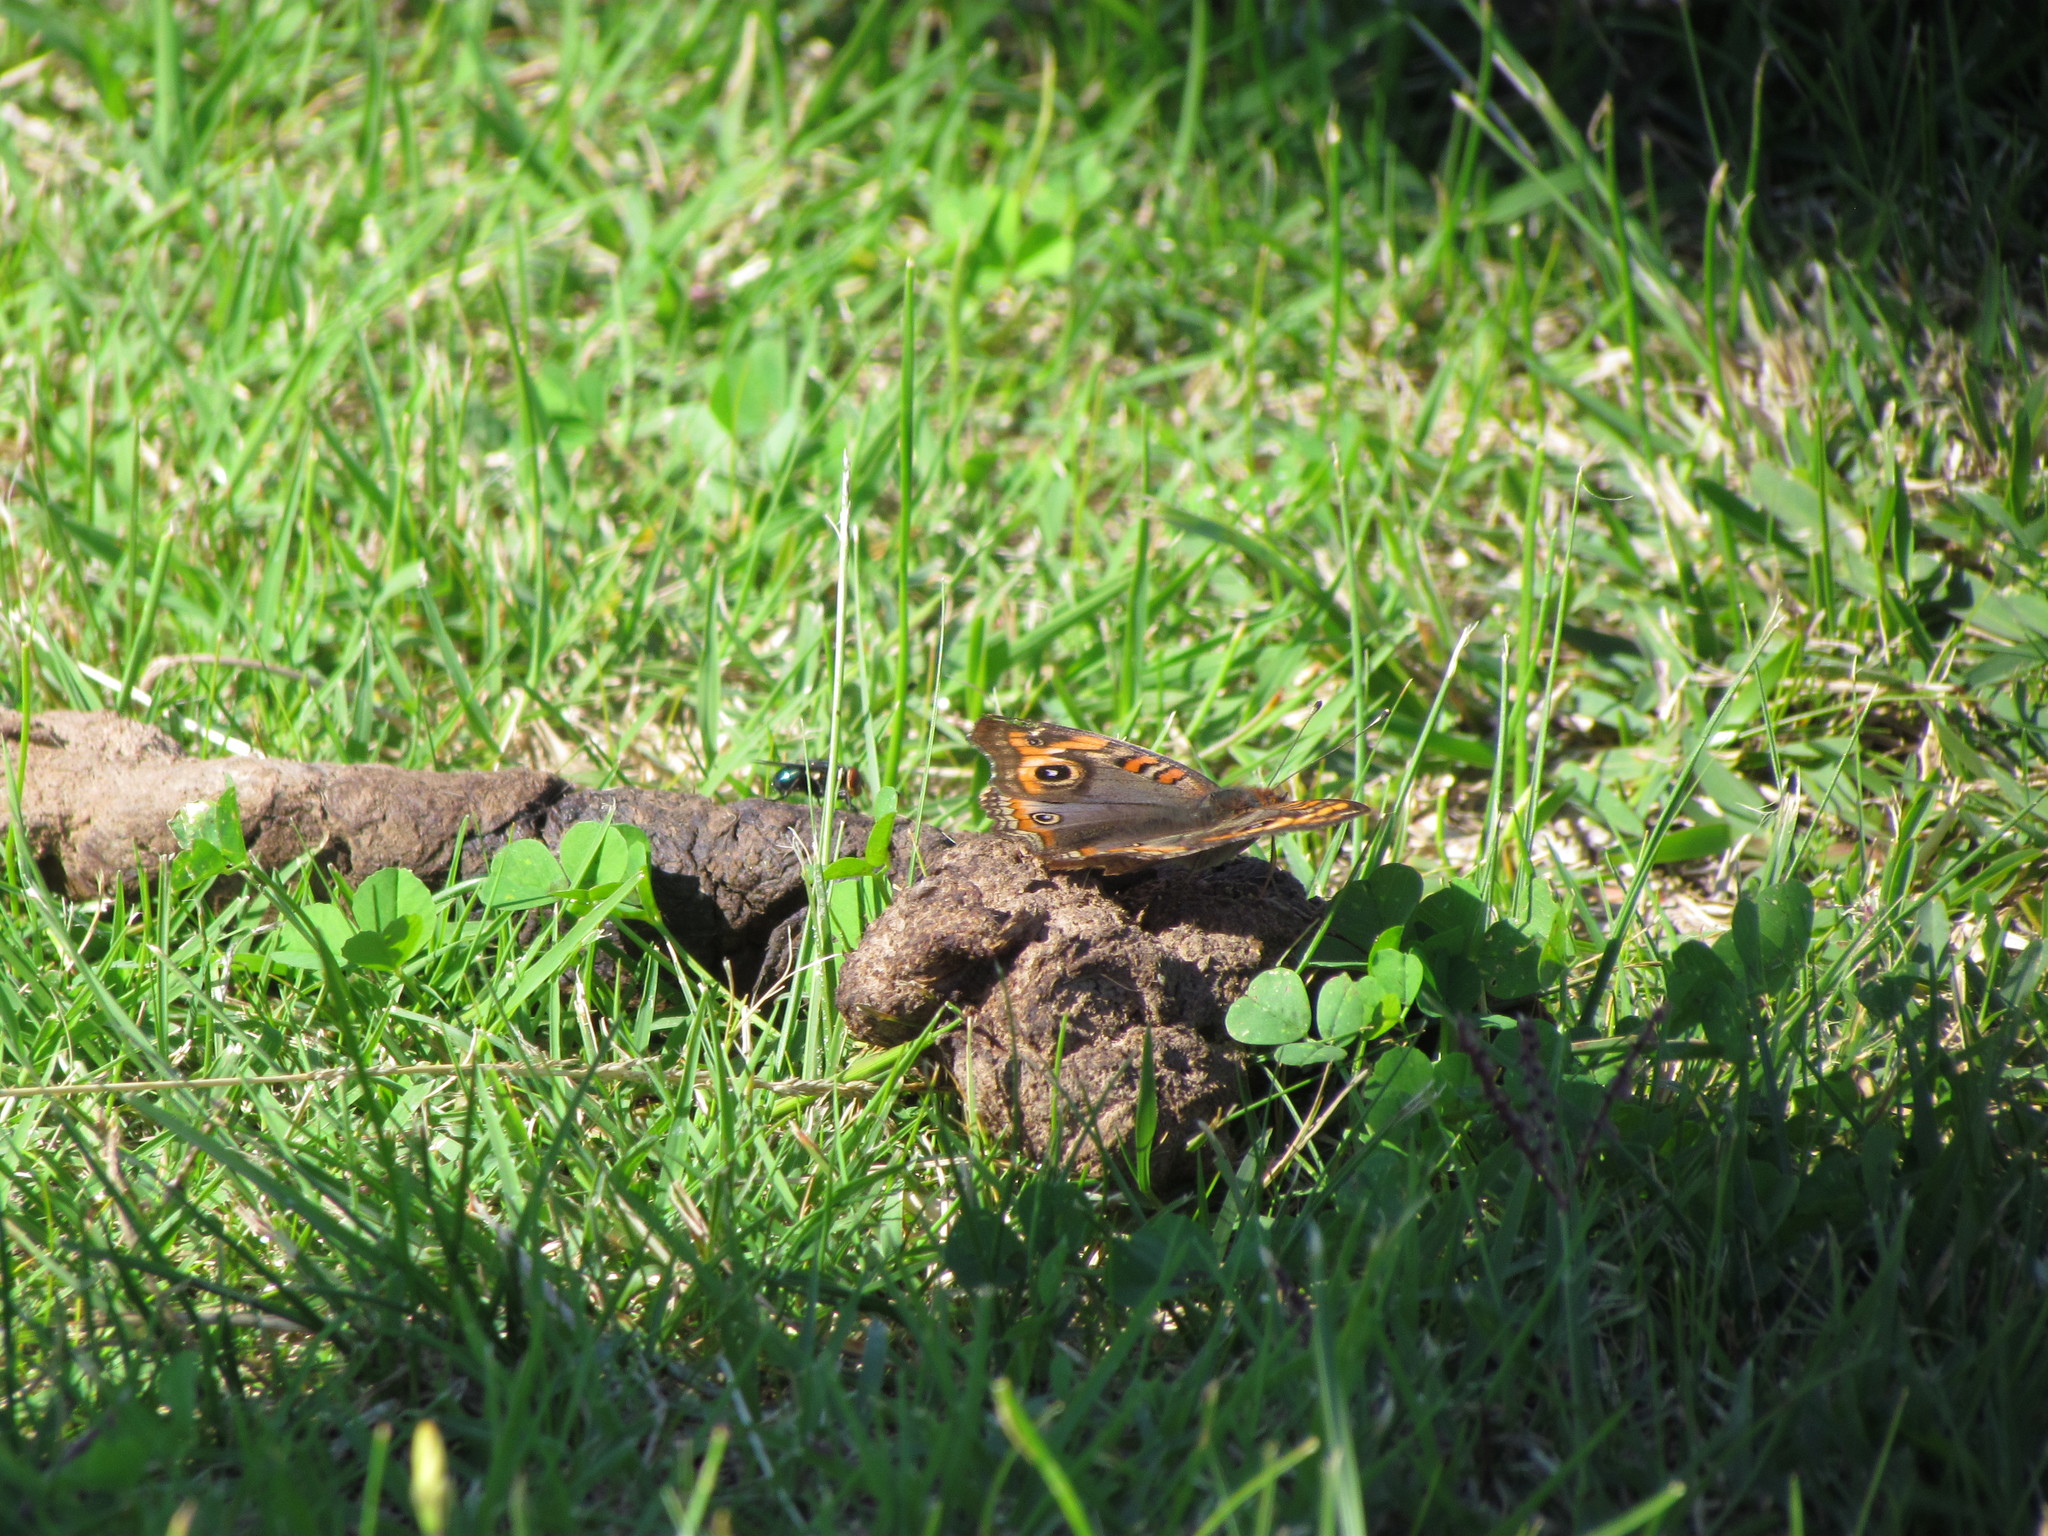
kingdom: Animalia
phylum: Arthropoda
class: Insecta
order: Lepidoptera
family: Nymphalidae
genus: Junonia
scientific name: Junonia lavinia
